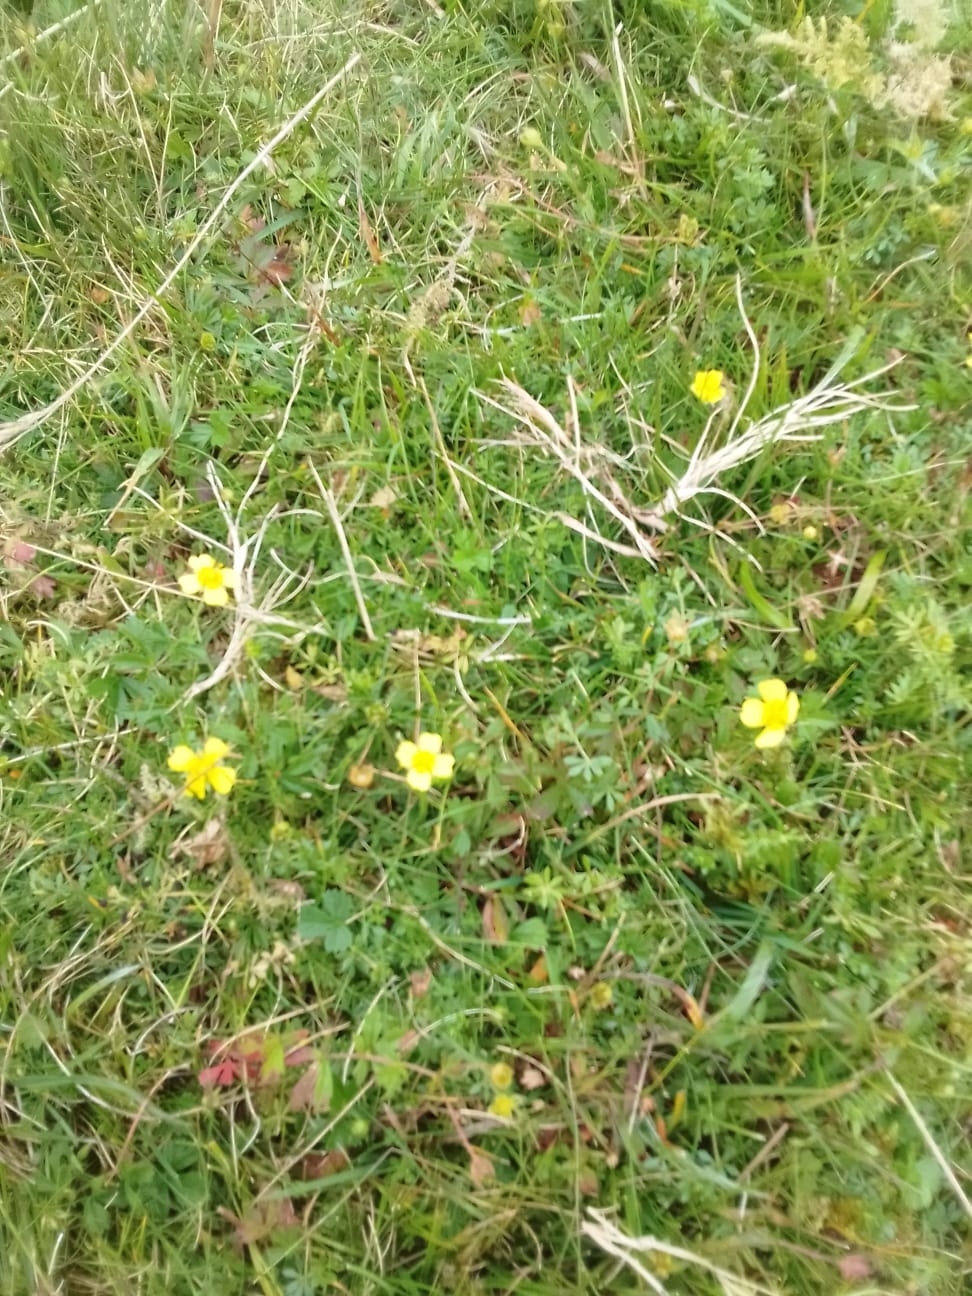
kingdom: Plantae
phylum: Tracheophyta
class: Magnoliopsida
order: Rosales
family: Rosaceae
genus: Potentilla
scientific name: Potentilla erecta
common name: Tormentil
